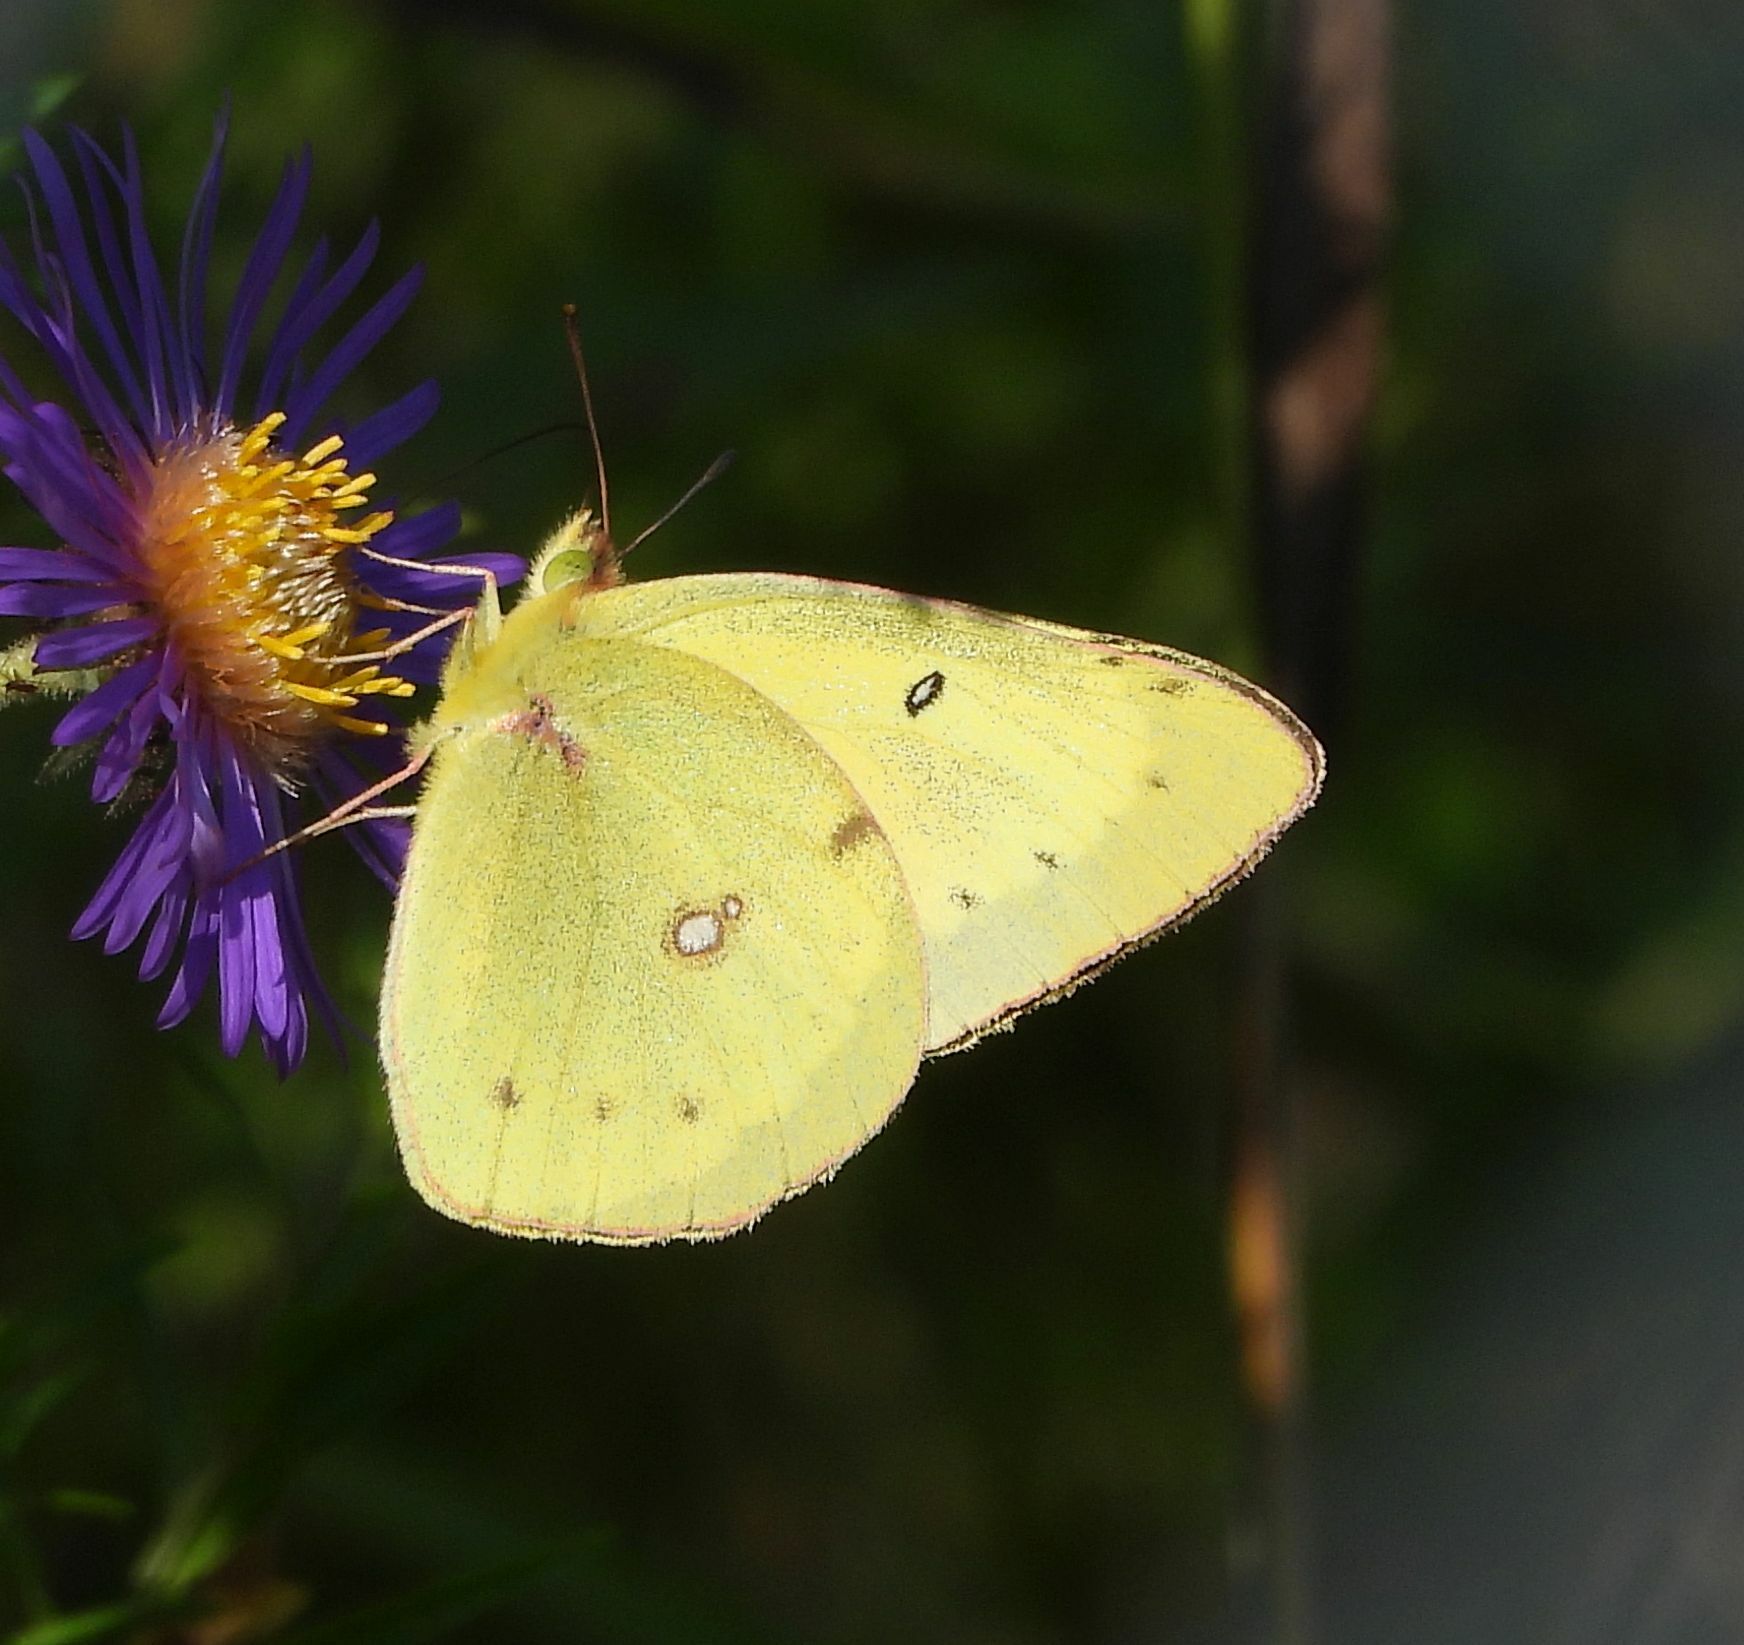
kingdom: Animalia
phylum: Arthropoda
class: Insecta
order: Lepidoptera
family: Pieridae
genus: Colias
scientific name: Colias philodice
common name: Clouded sulphur
